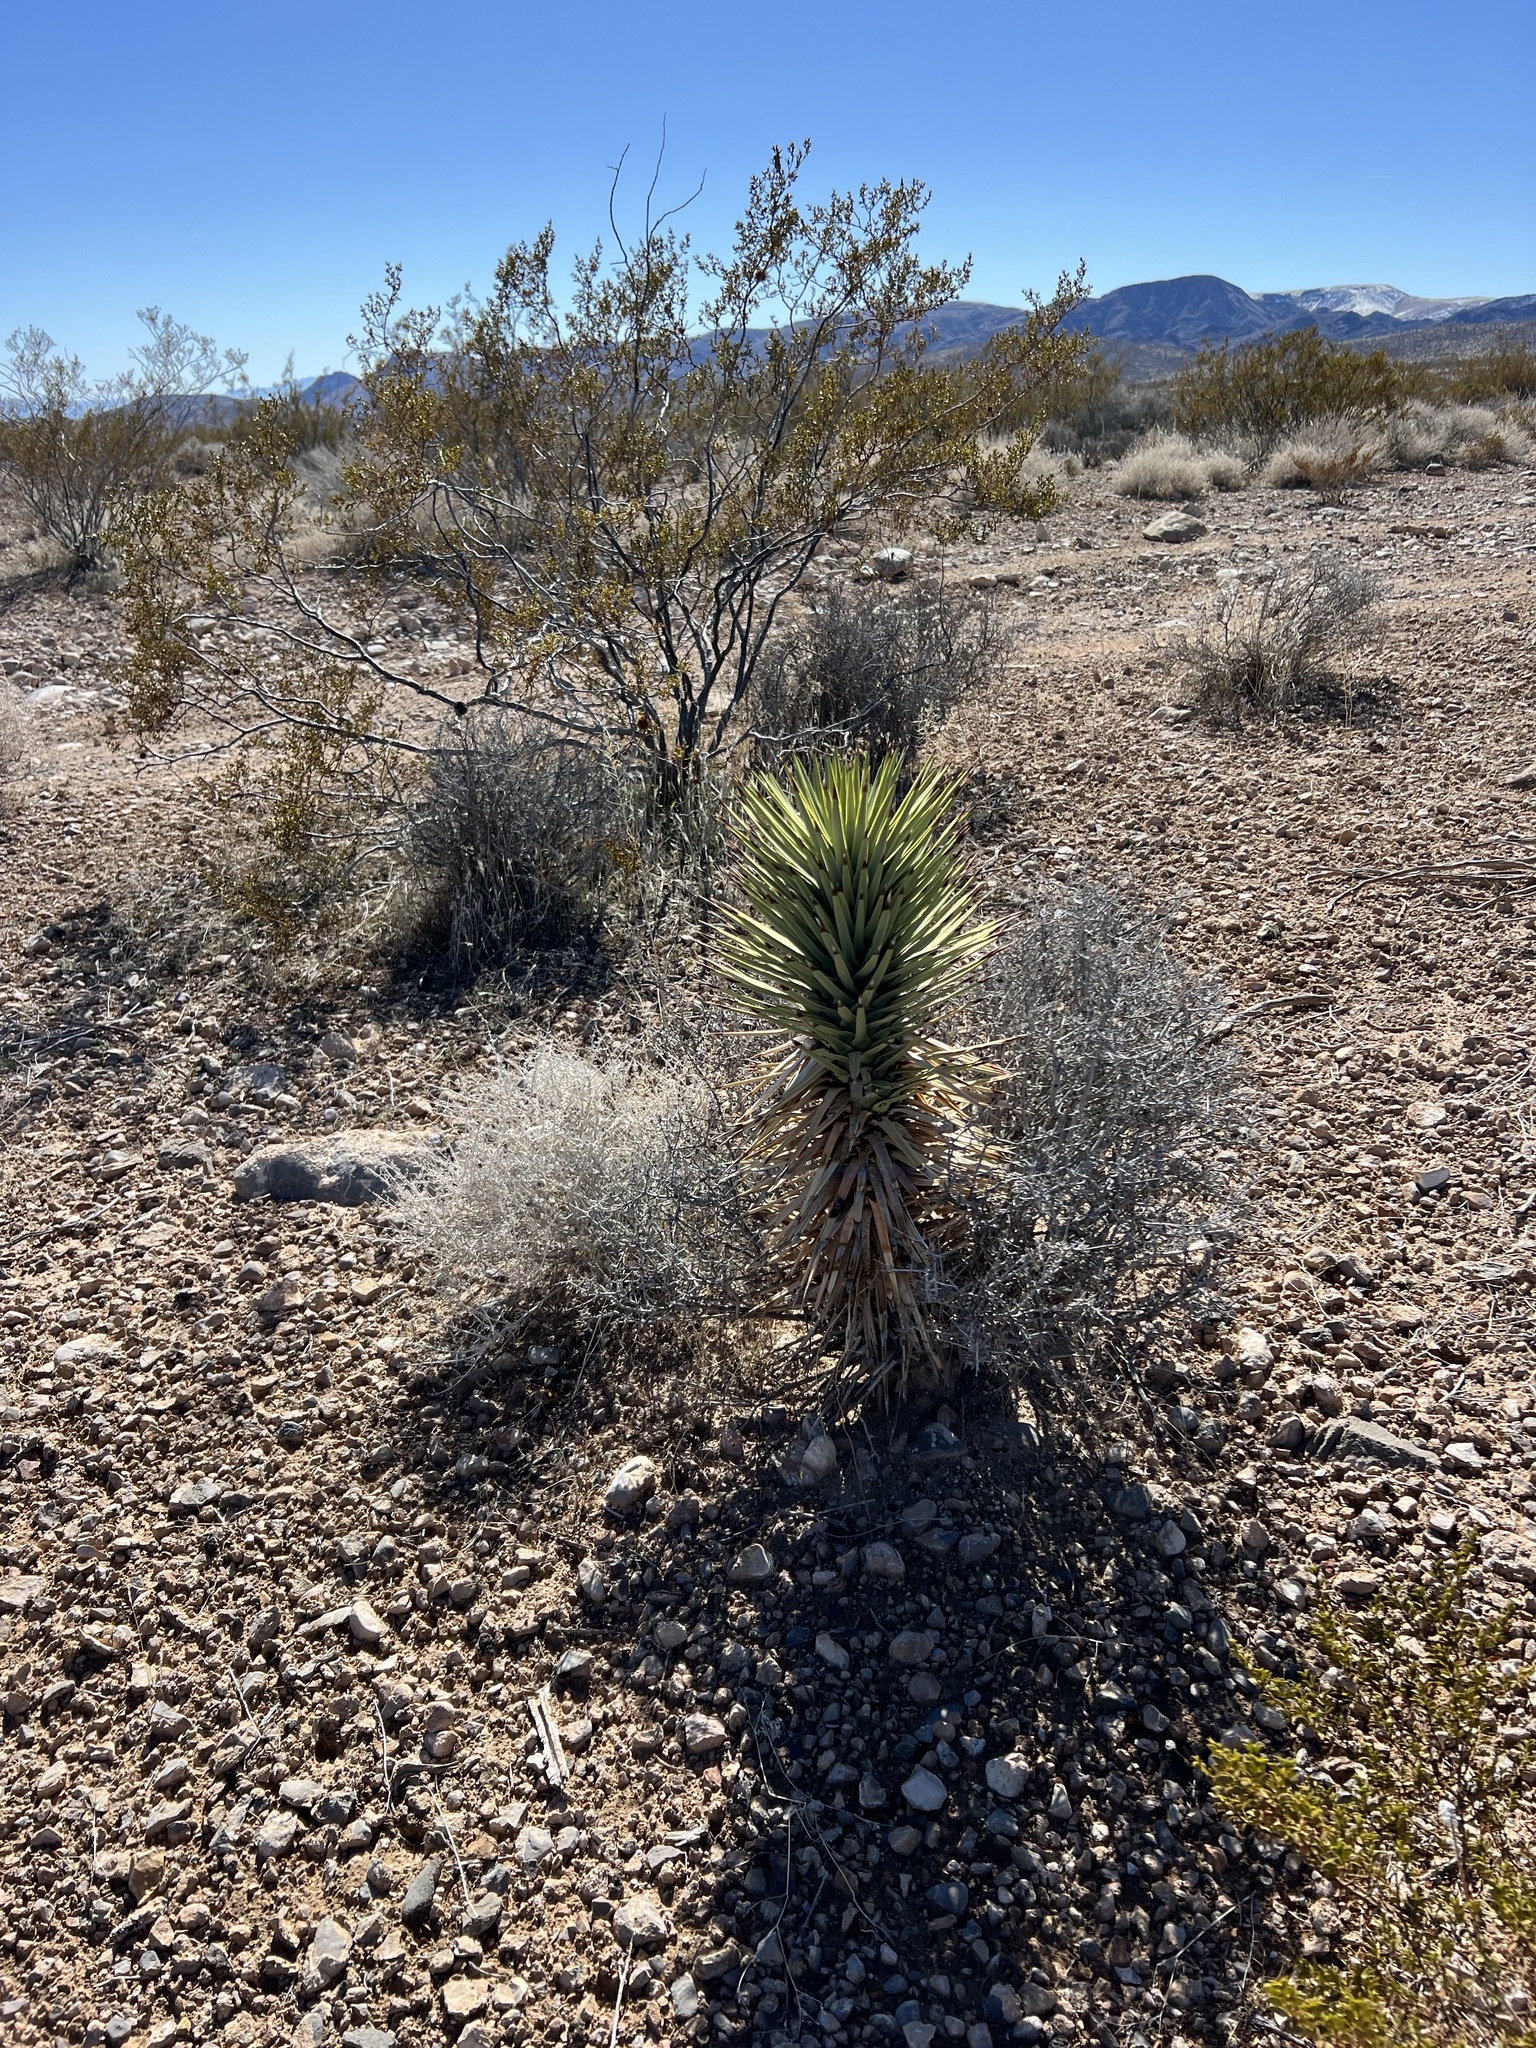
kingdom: Plantae
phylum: Tracheophyta
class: Liliopsida
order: Asparagales
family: Asparagaceae
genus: Yucca
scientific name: Yucca brevifolia
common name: Joshua tree
